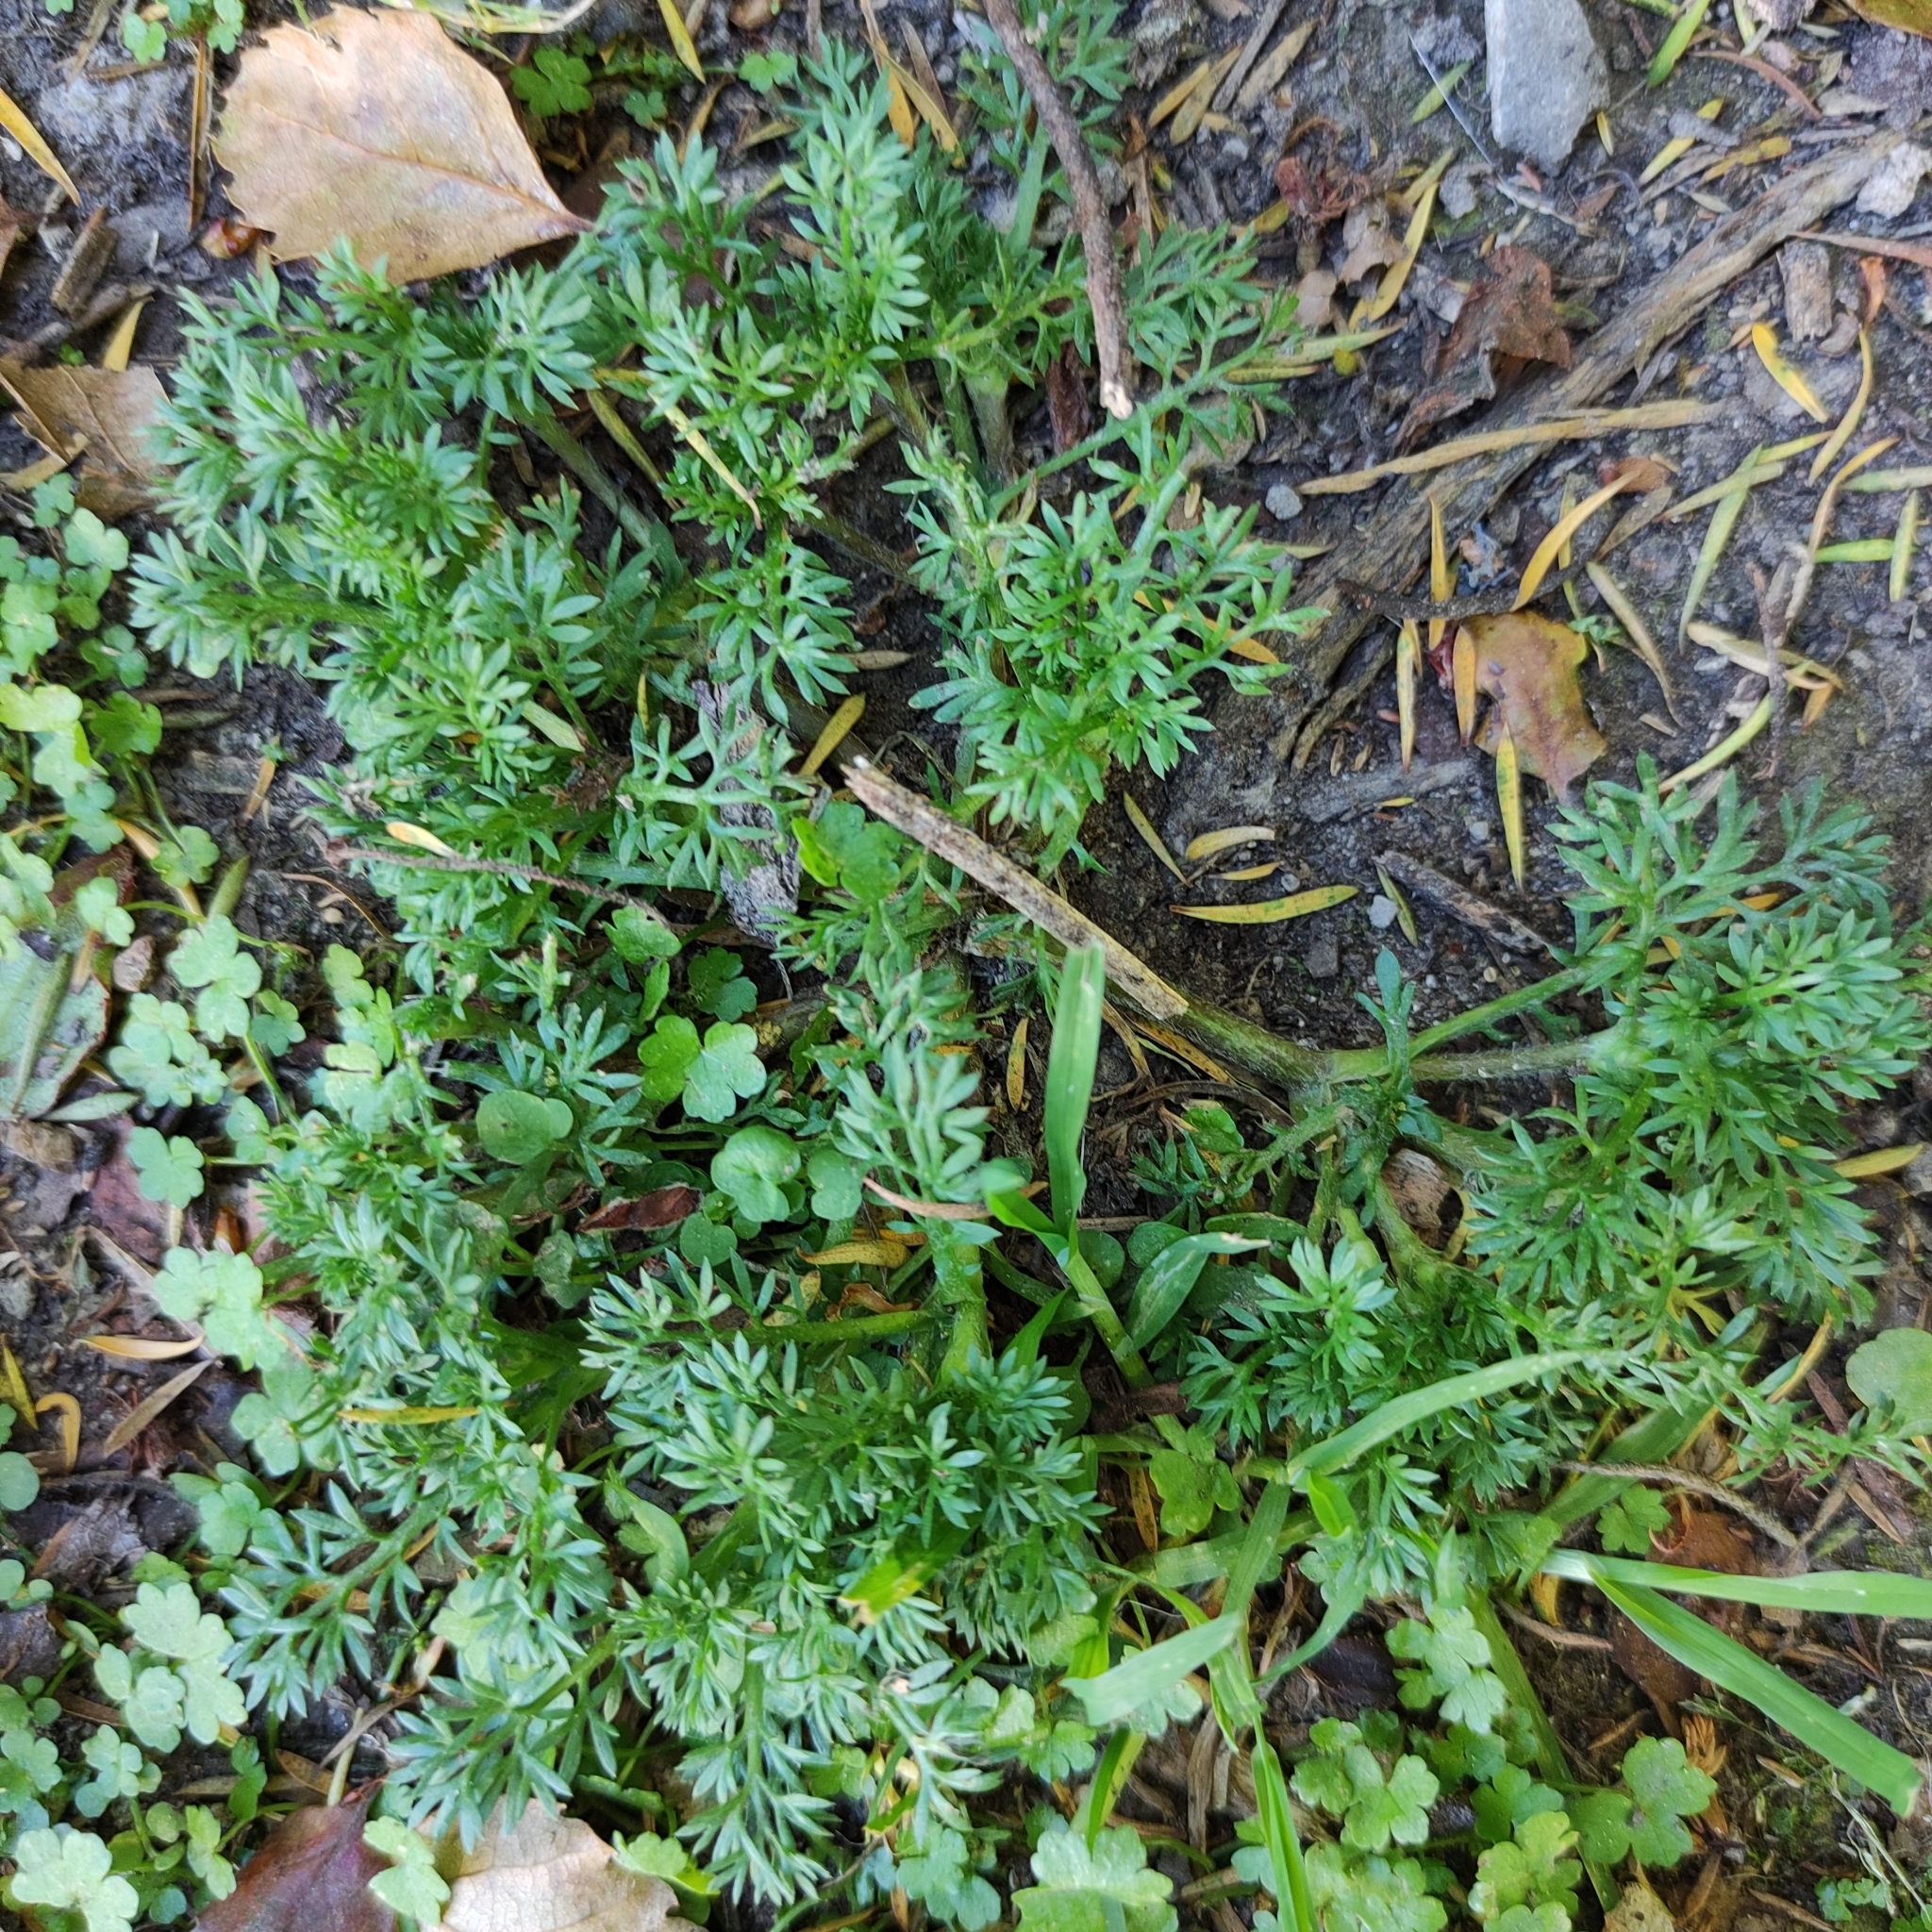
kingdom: Plantae
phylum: Tracheophyta
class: Magnoliopsida
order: Asterales
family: Asteraceae
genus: Soliva
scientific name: Soliva sessilis
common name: Field burrweed
